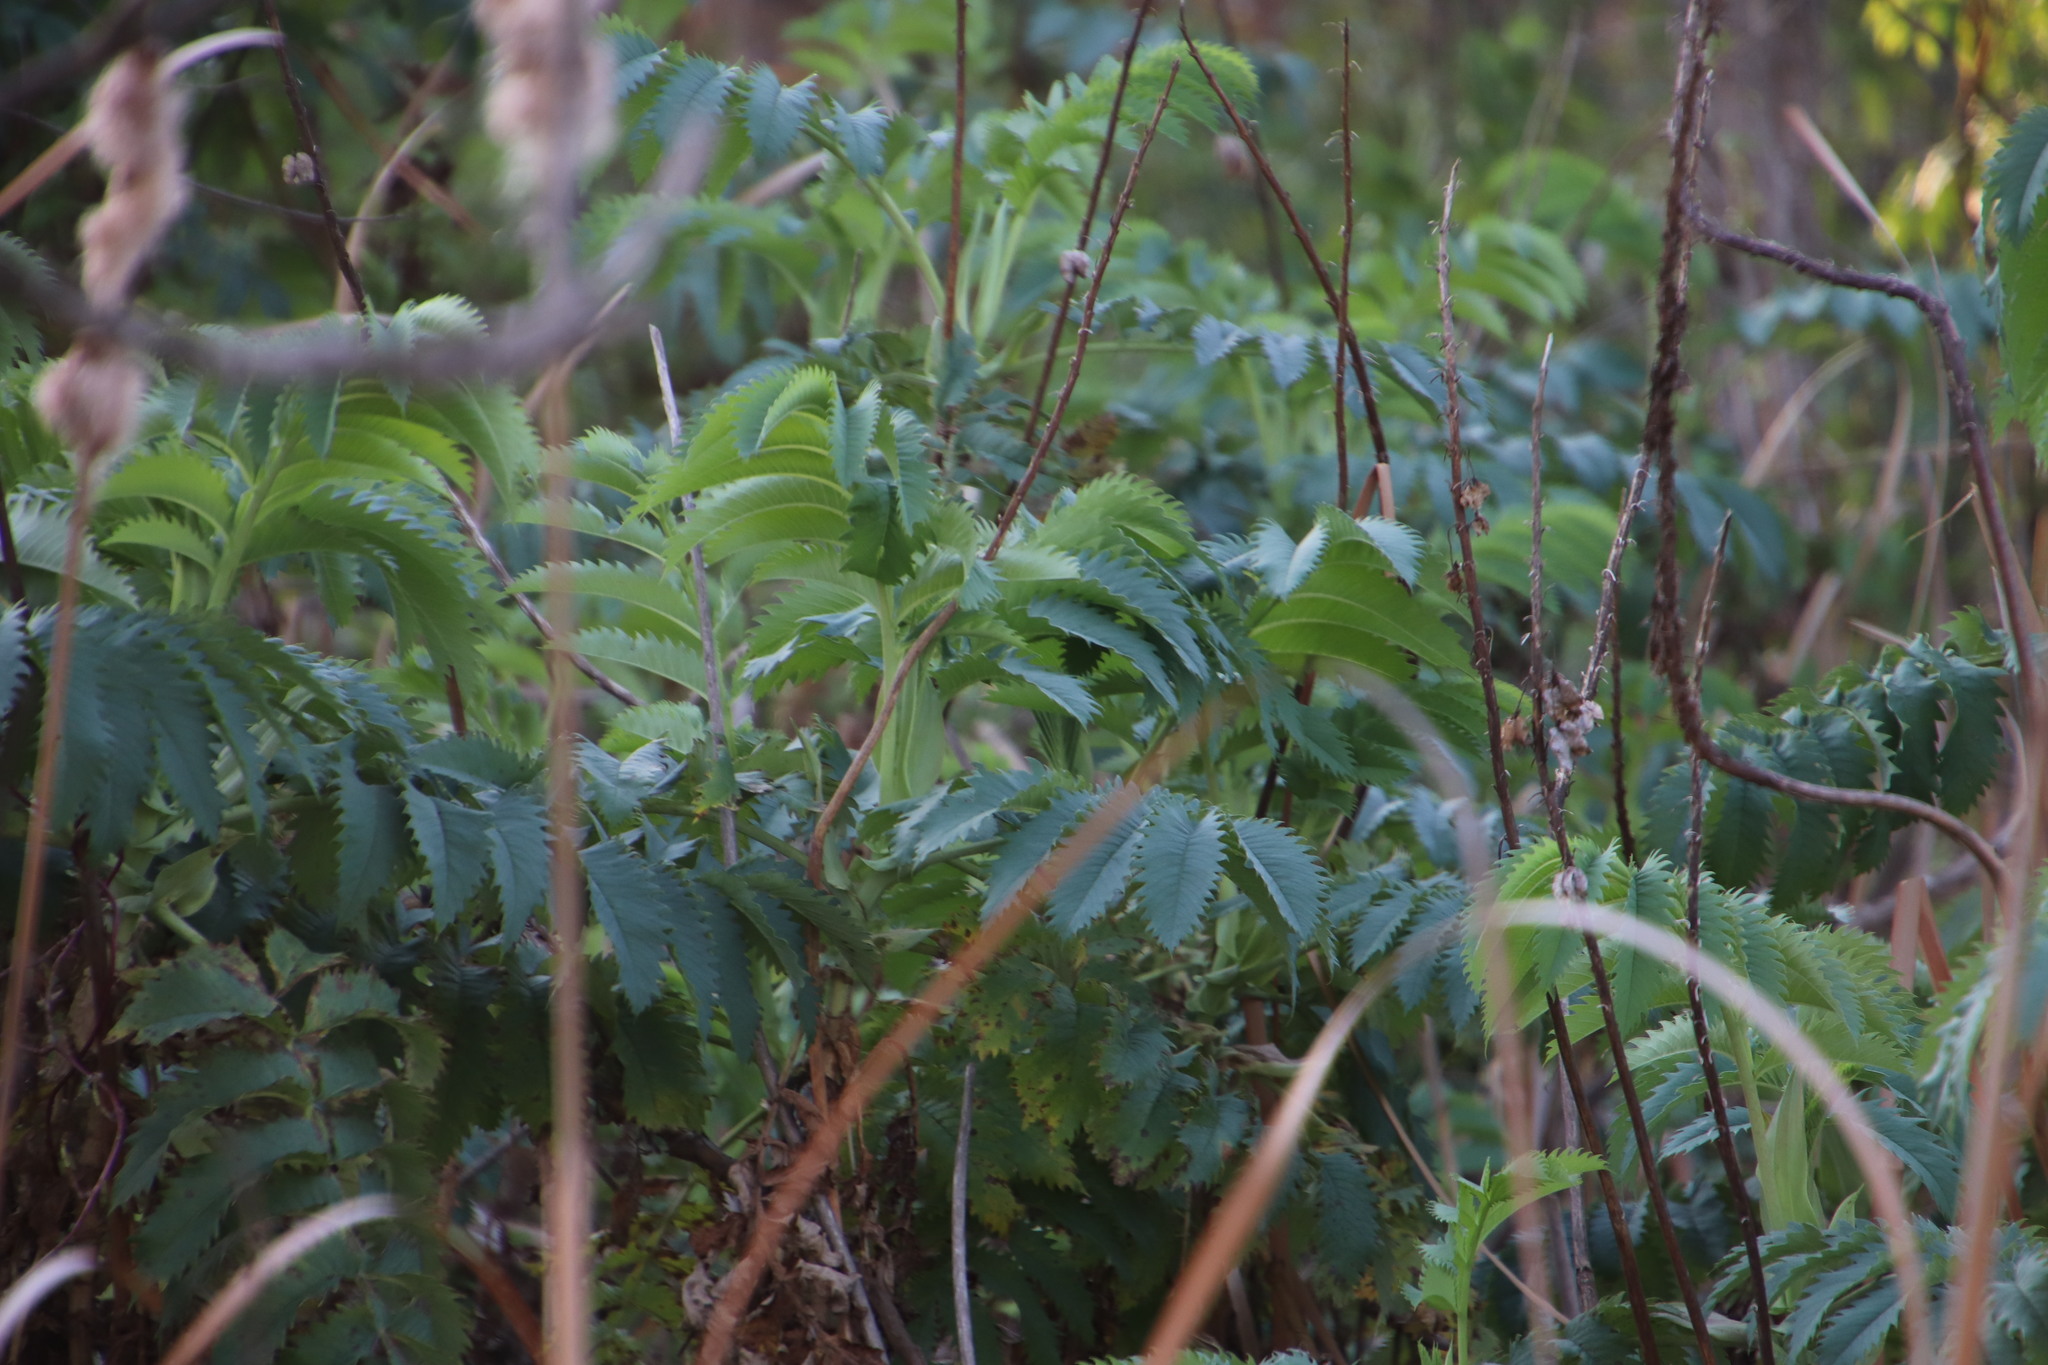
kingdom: Plantae
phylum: Tracheophyta
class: Magnoliopsida
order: Geraniales
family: Melianthaceae
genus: Melianthus
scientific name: Melianthus major
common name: Honey-flower
